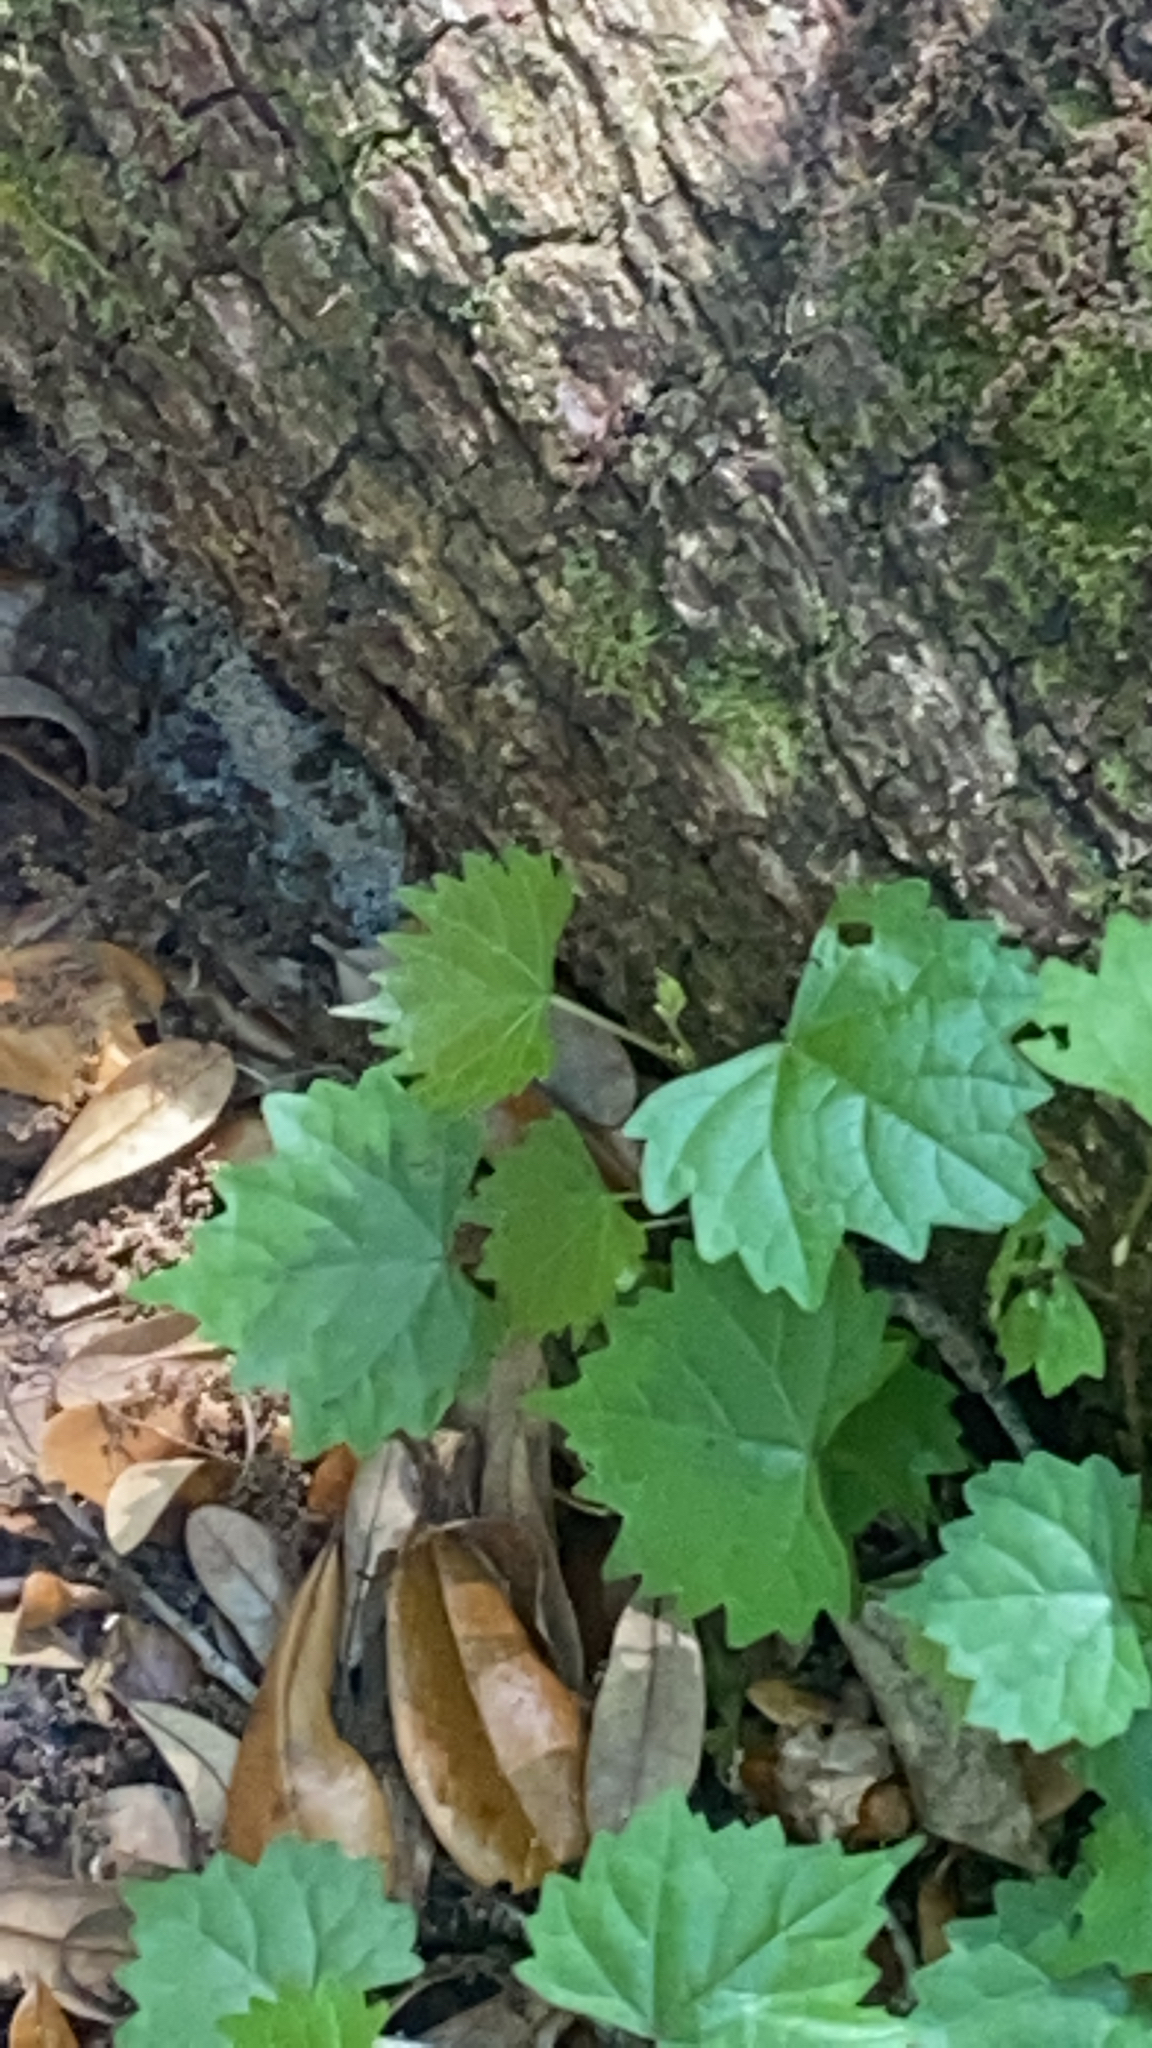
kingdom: Plantae
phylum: Tracheophyta
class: Magnoliopsida
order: Vitales
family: Vitaceae
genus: Vitis
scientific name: Vitis rotundifolia
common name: Muscadine grape
